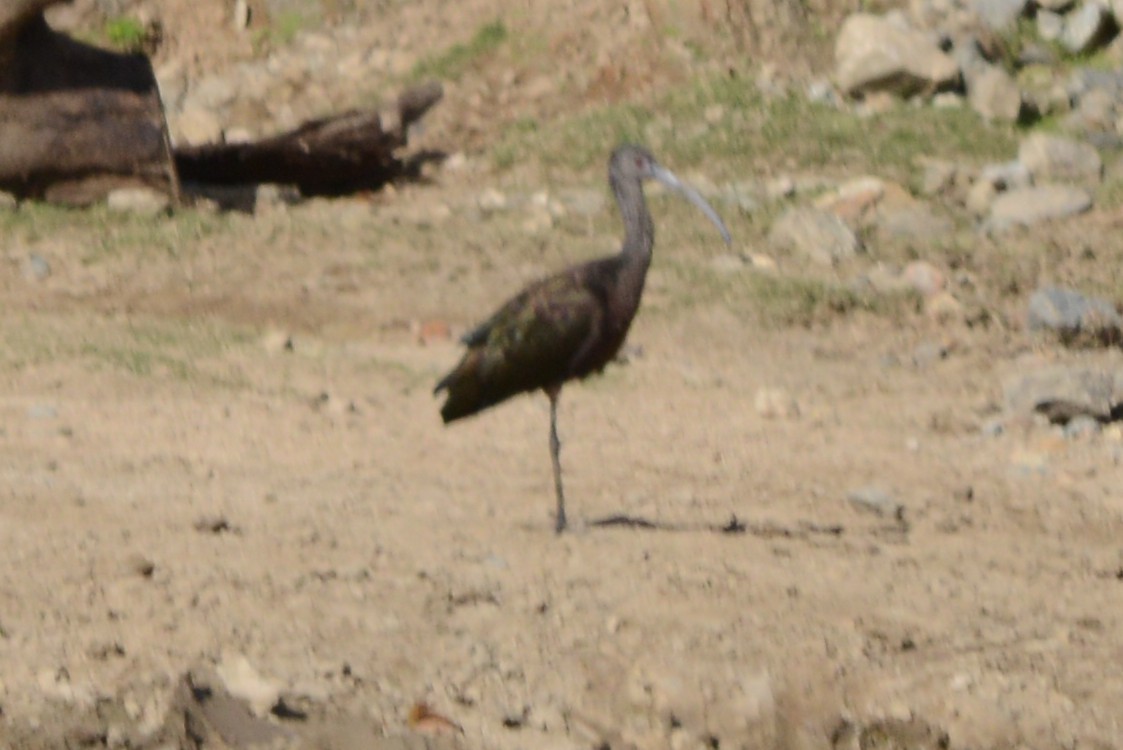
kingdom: Animalia
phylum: Chordata
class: Aves
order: Pelecaniformes
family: Threskiornithidae
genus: Plegadis
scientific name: Plegadis chihi
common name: White-faced ibis
